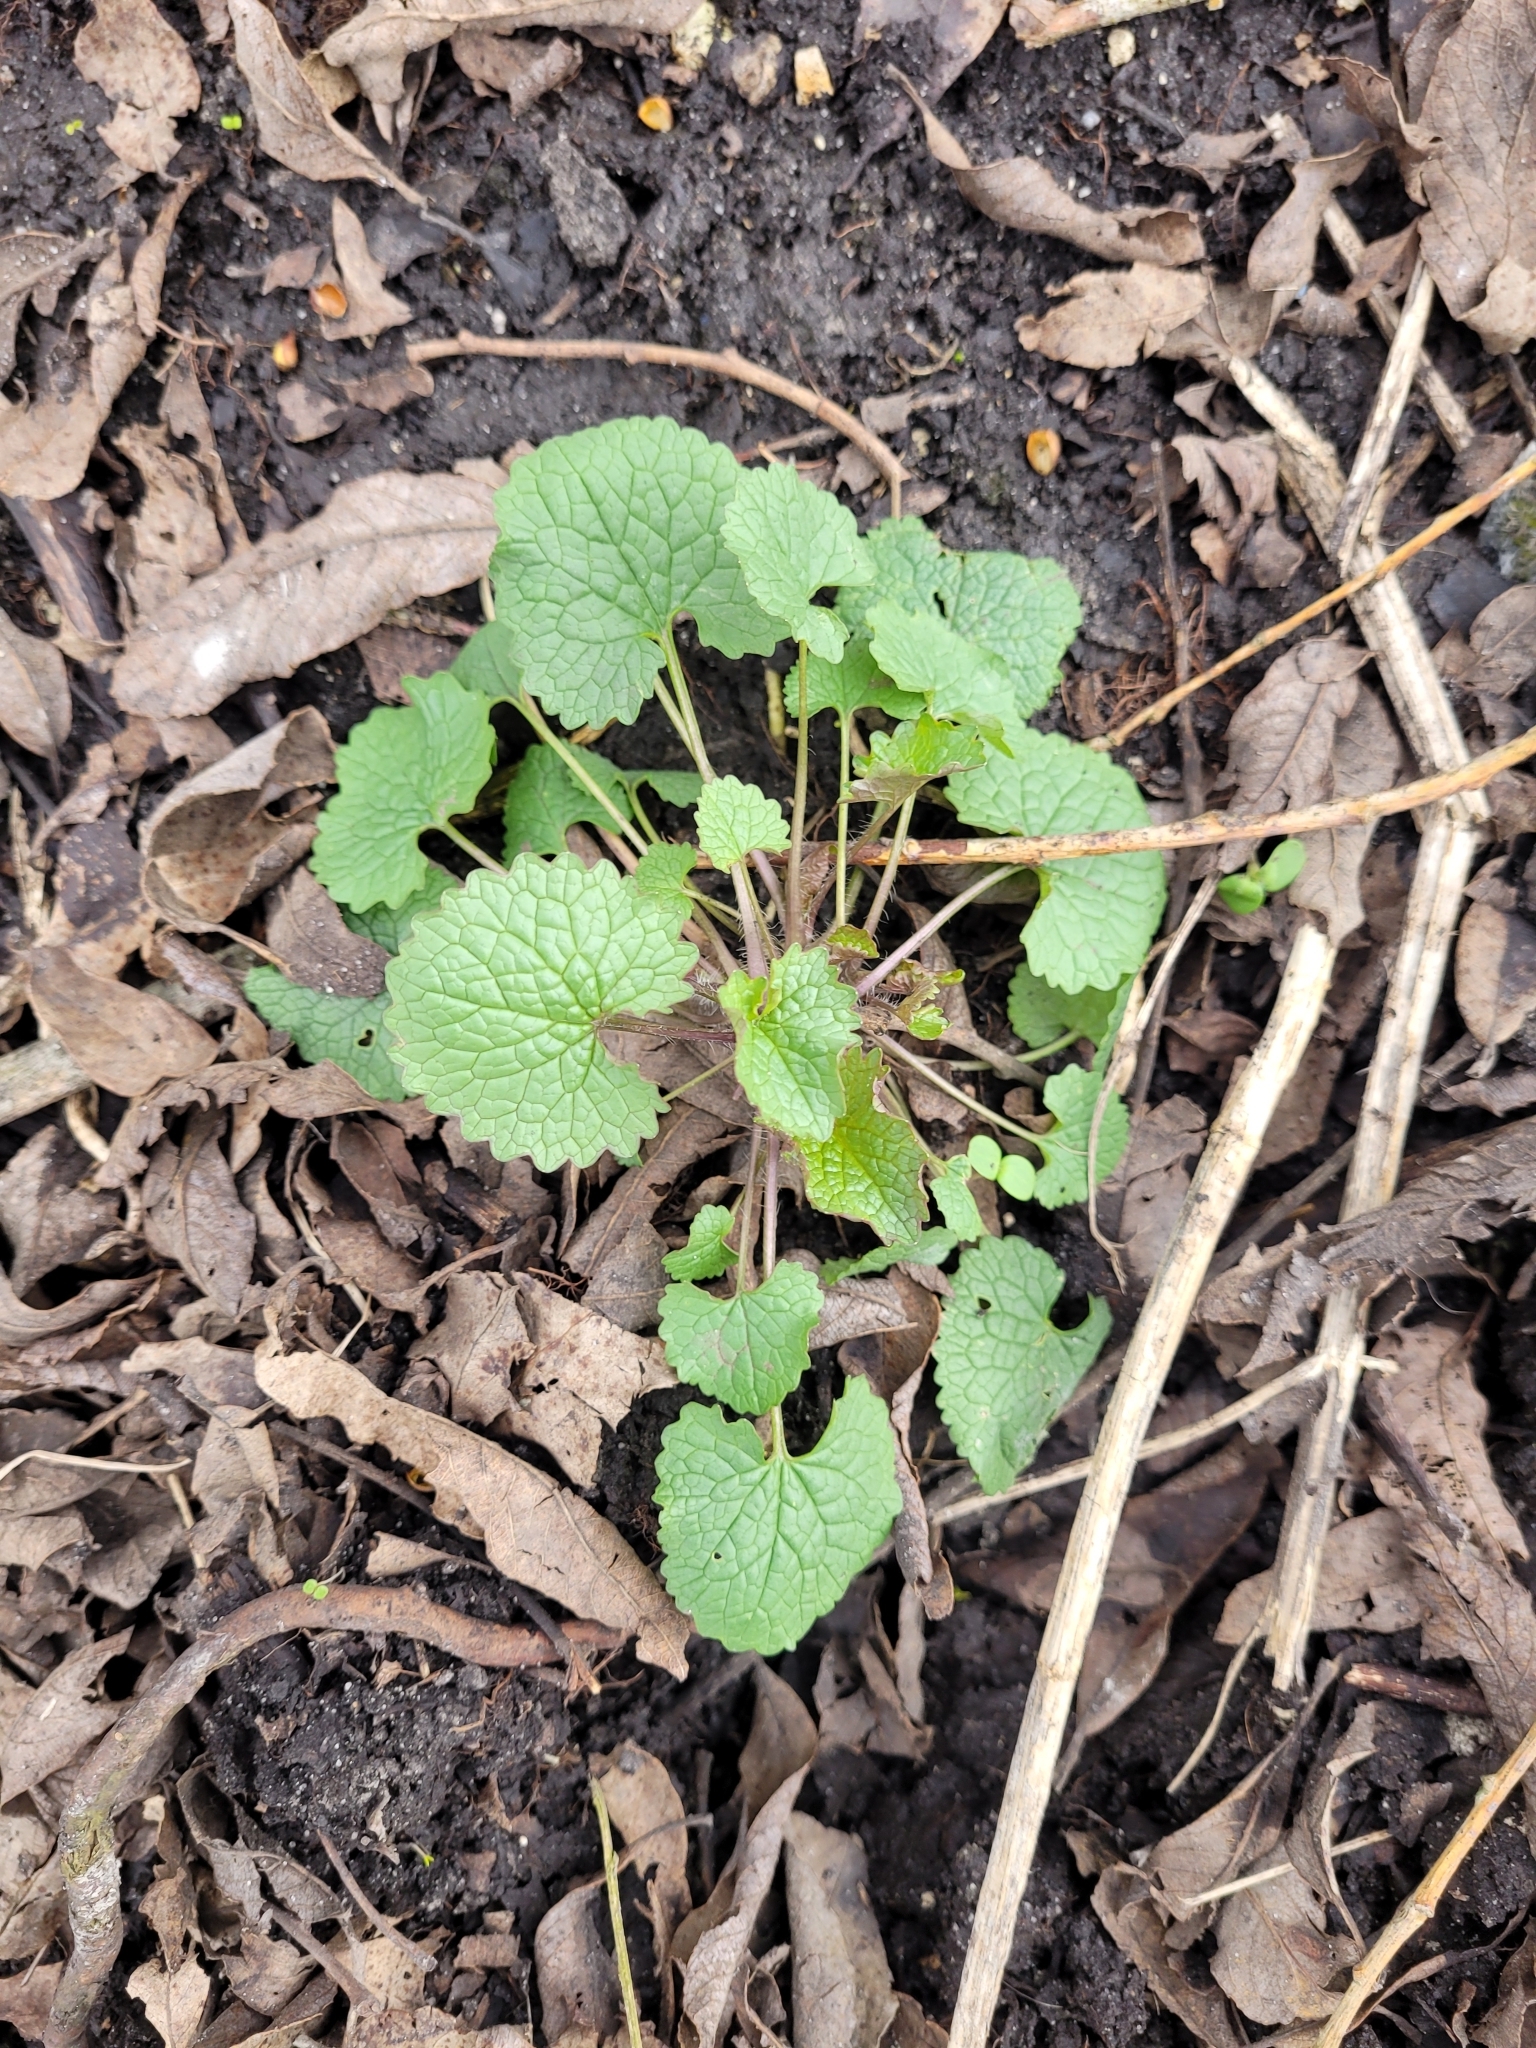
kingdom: Plantae
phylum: Tracheophyta
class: Magnoliopsida
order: Brassicales
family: Brassicaceae
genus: Alliaria
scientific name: Alliaria petiolata
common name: Garlic mustard
